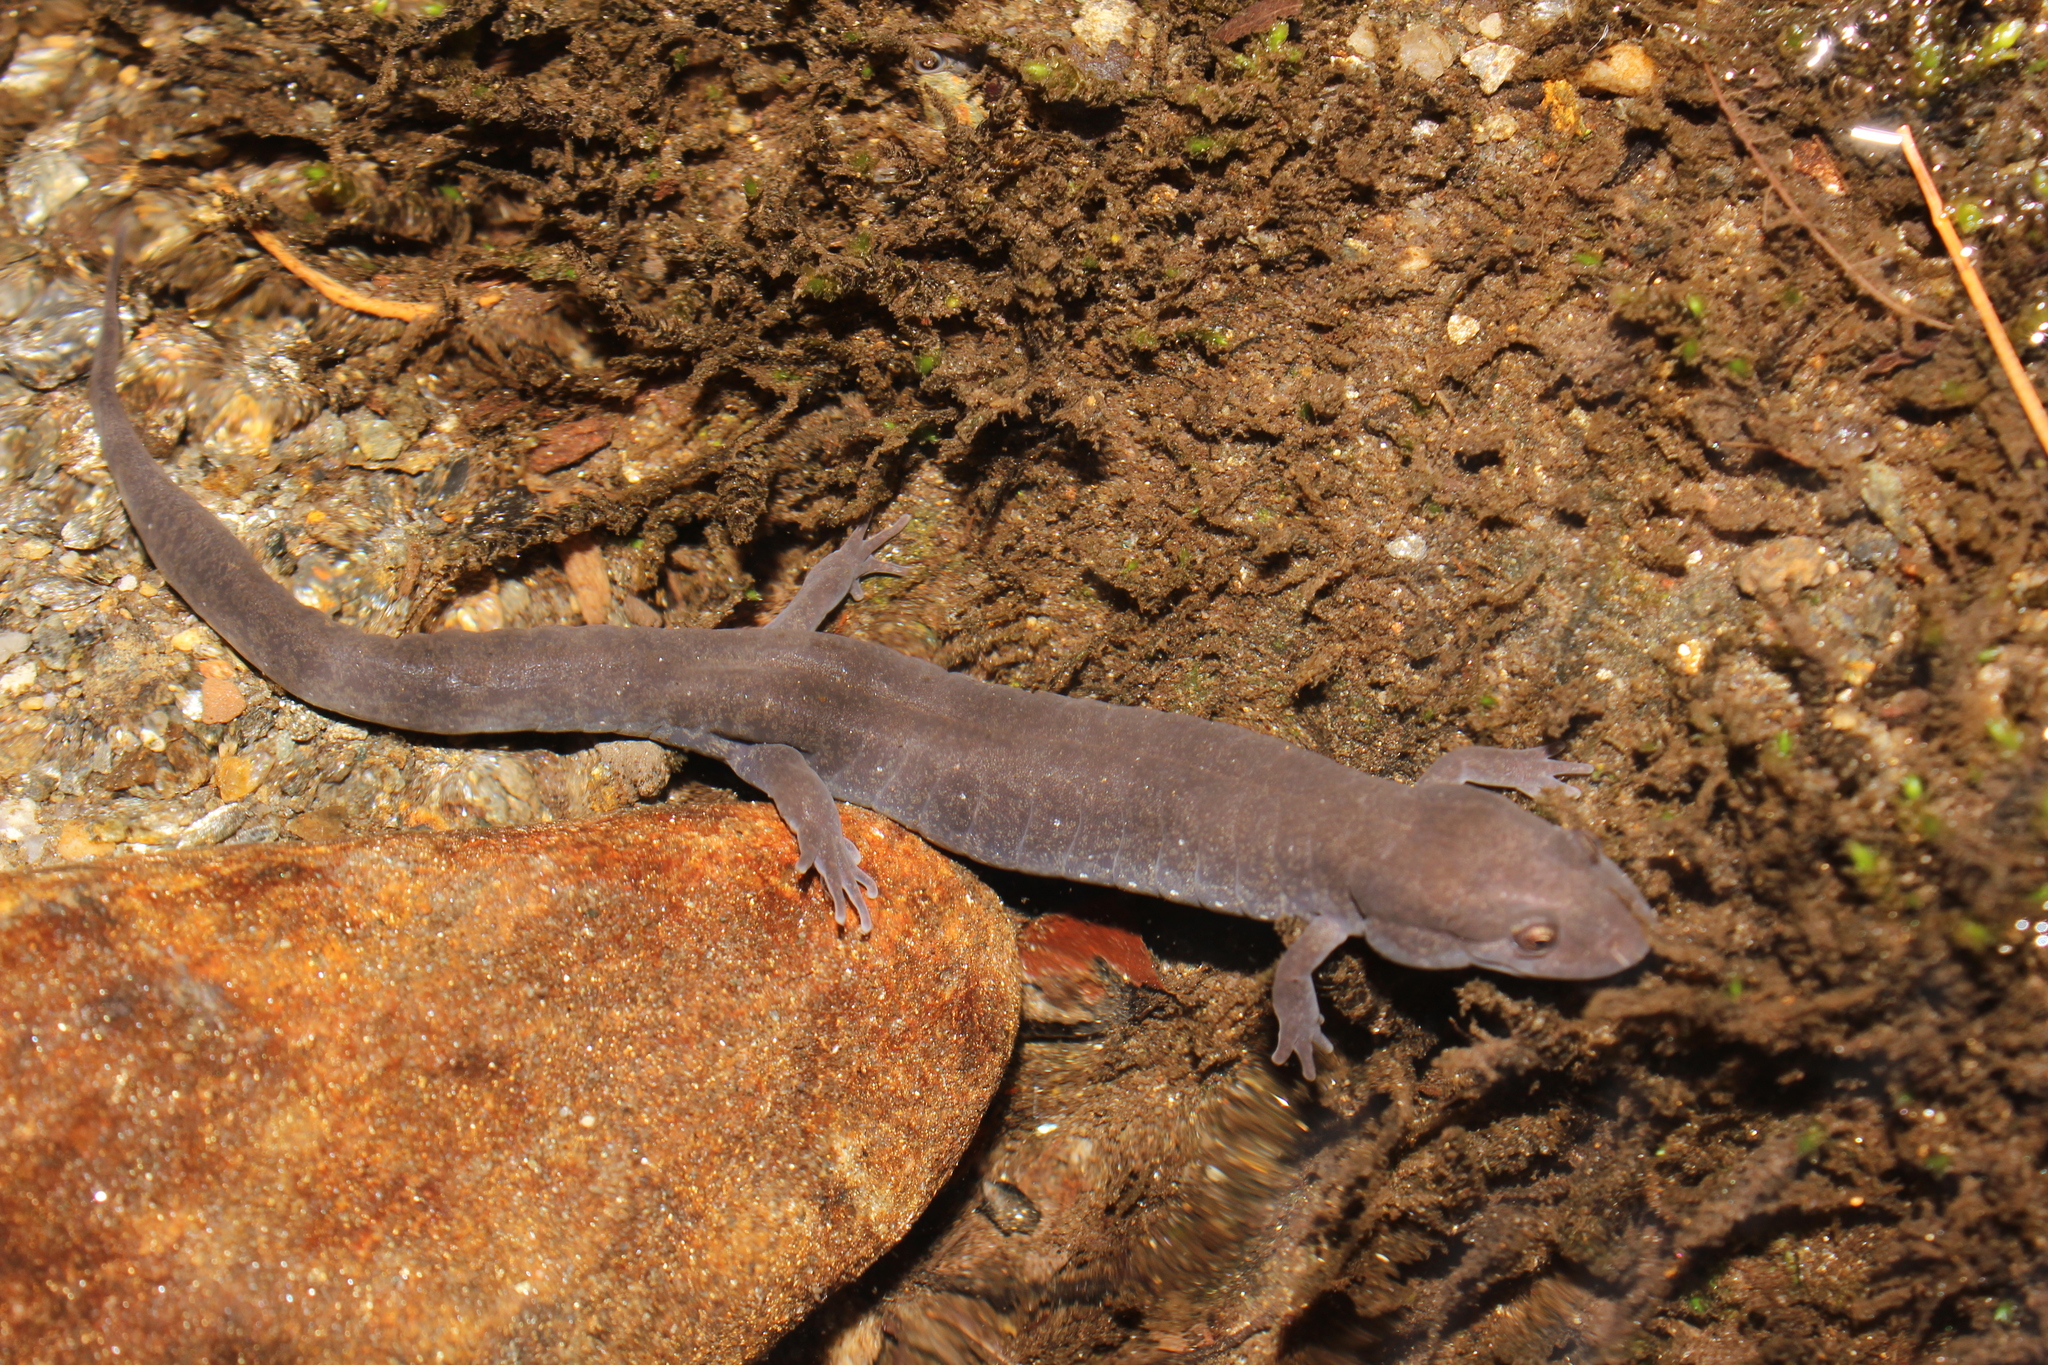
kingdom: Animalia
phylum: Chordata
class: Amphibia
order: Caudata
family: Plethodontidae
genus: Desmognathus
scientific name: Desmognathus fuscus
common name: Northern dusky salamander
